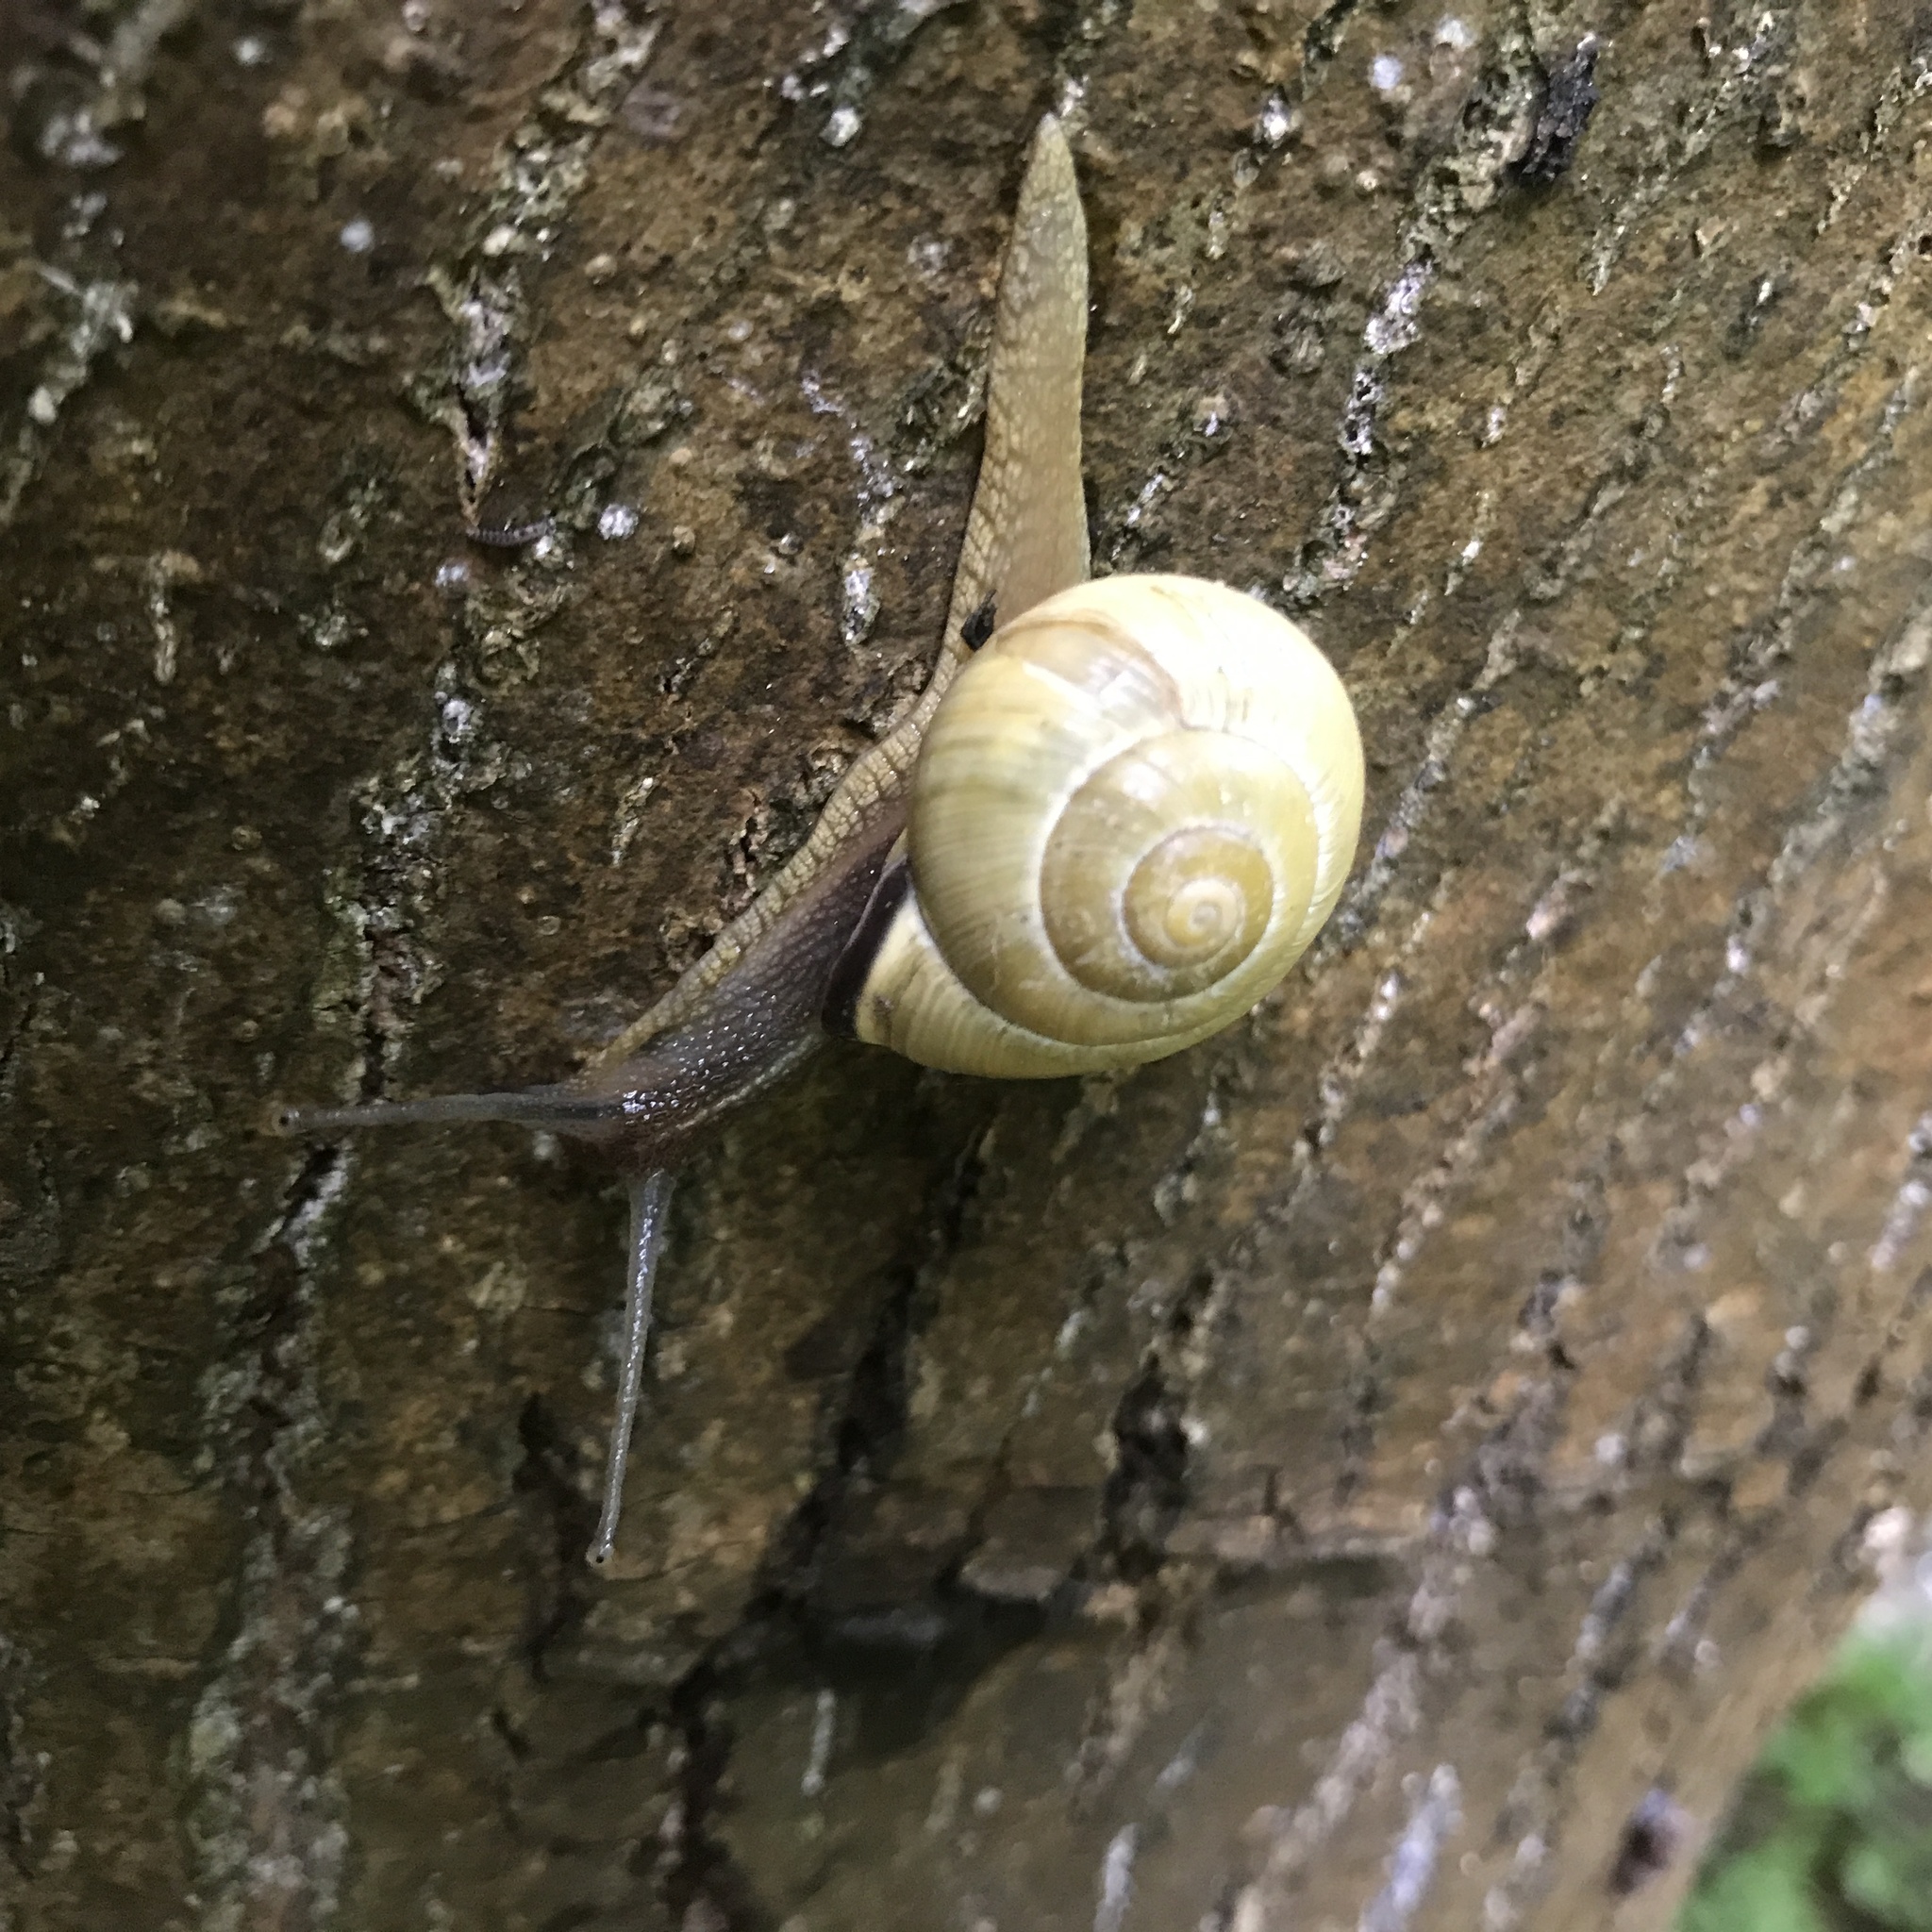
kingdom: Animalia
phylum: Mollusca
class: Gastropoda
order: Stylommatophora
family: Helicidae
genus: Cepaea
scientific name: Cepaea nemoralis
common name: Grovesnail
